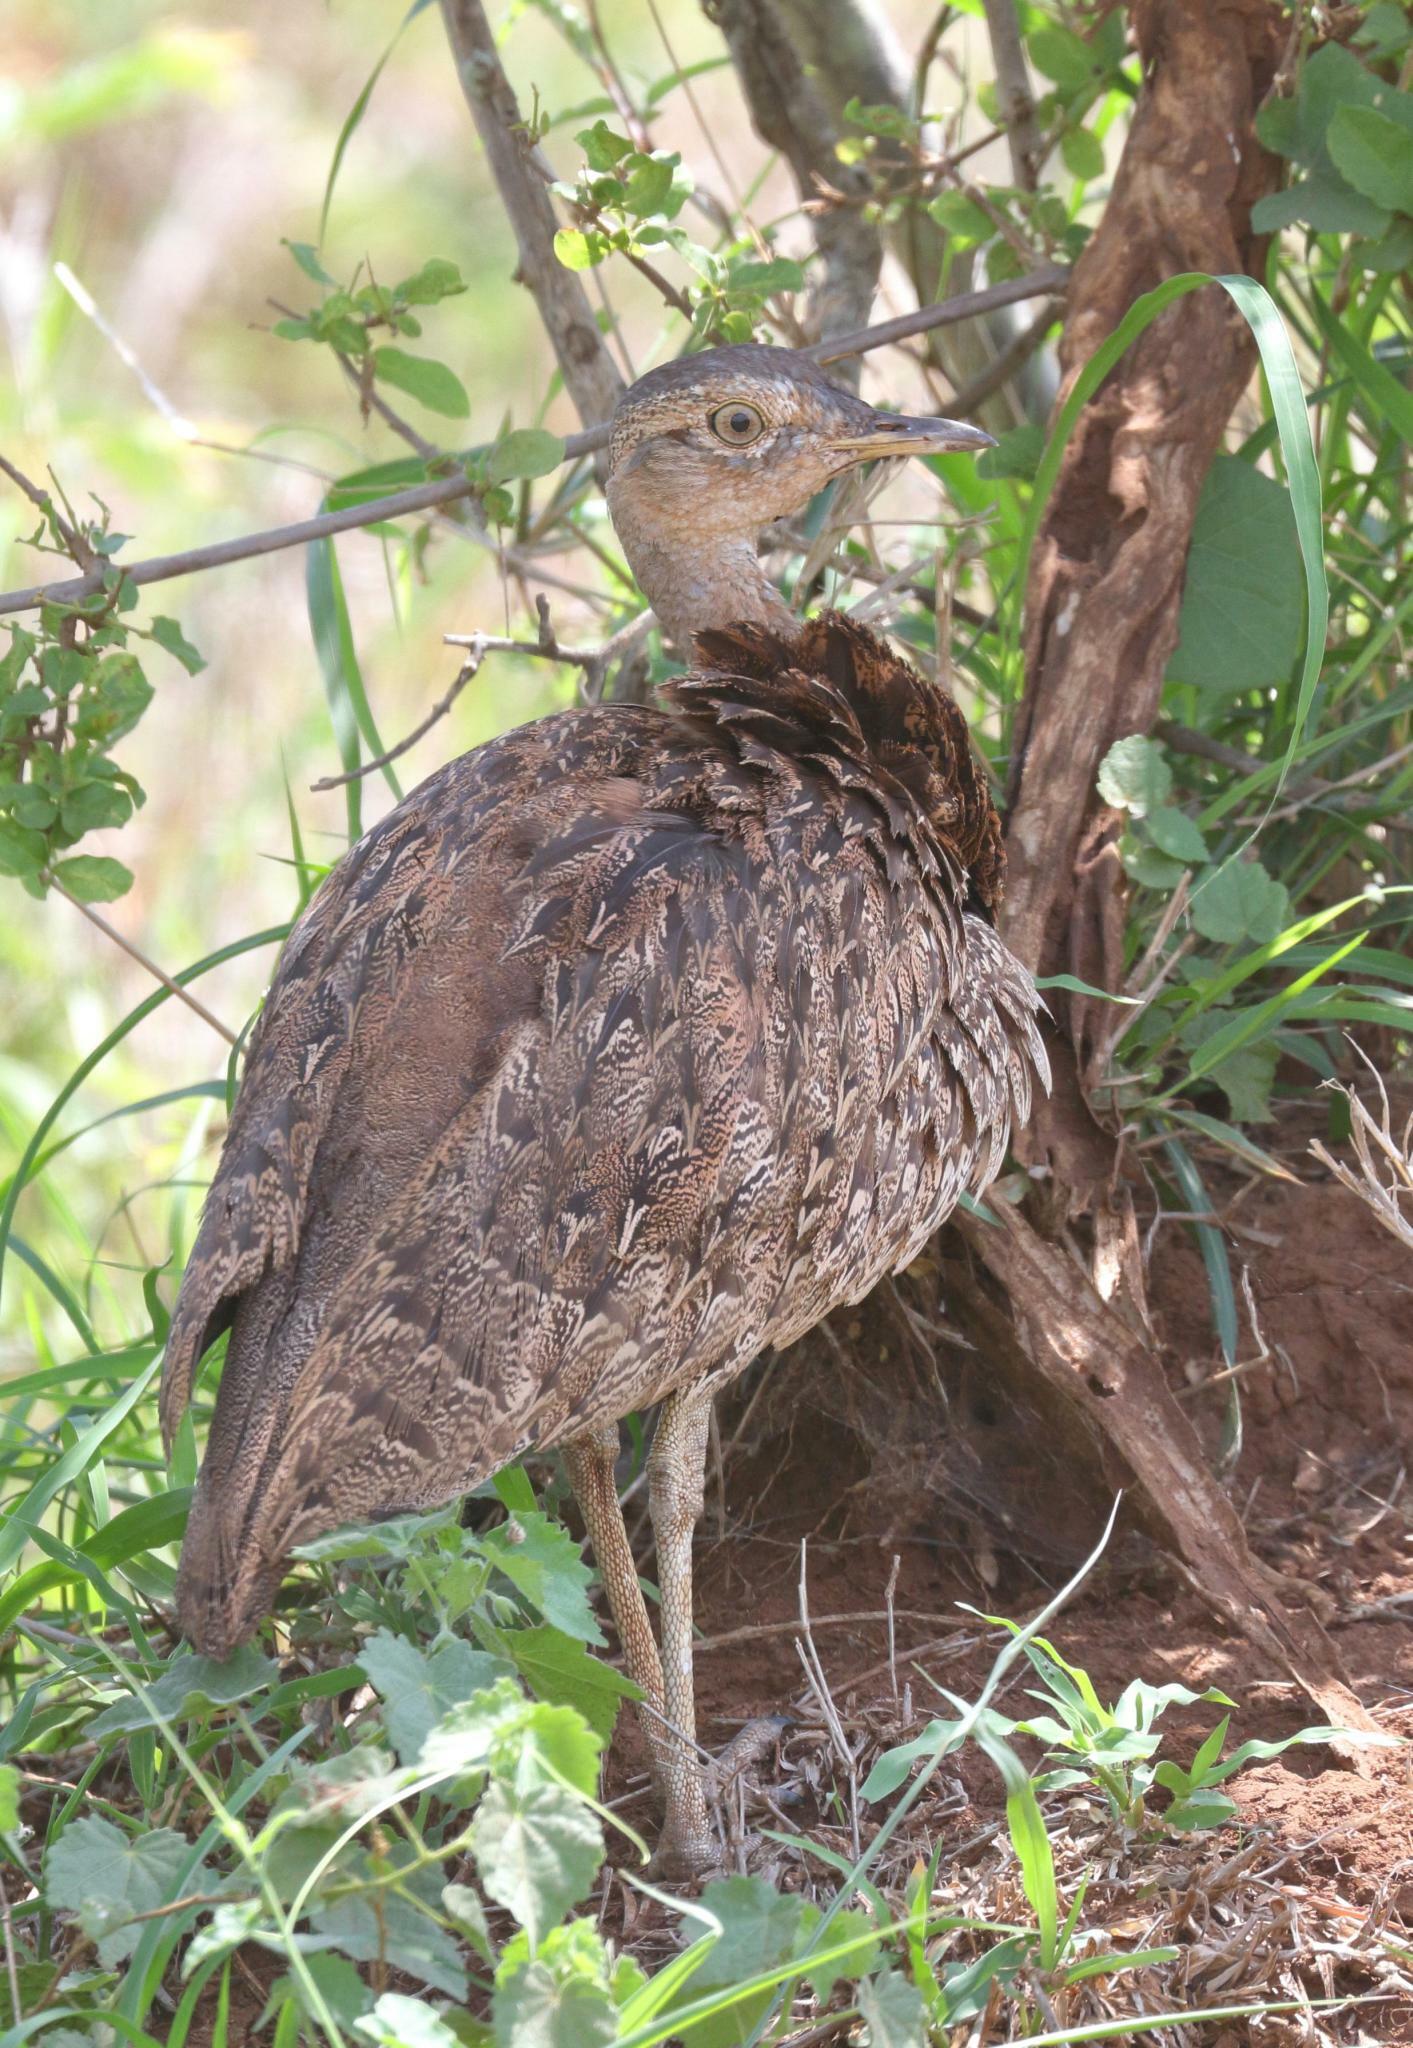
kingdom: Animalia
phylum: Chordata
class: Aves
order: Otidiformes
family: Otididae
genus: Lophotis
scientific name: Lophotis ruficrista
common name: Red-crested korhaan
